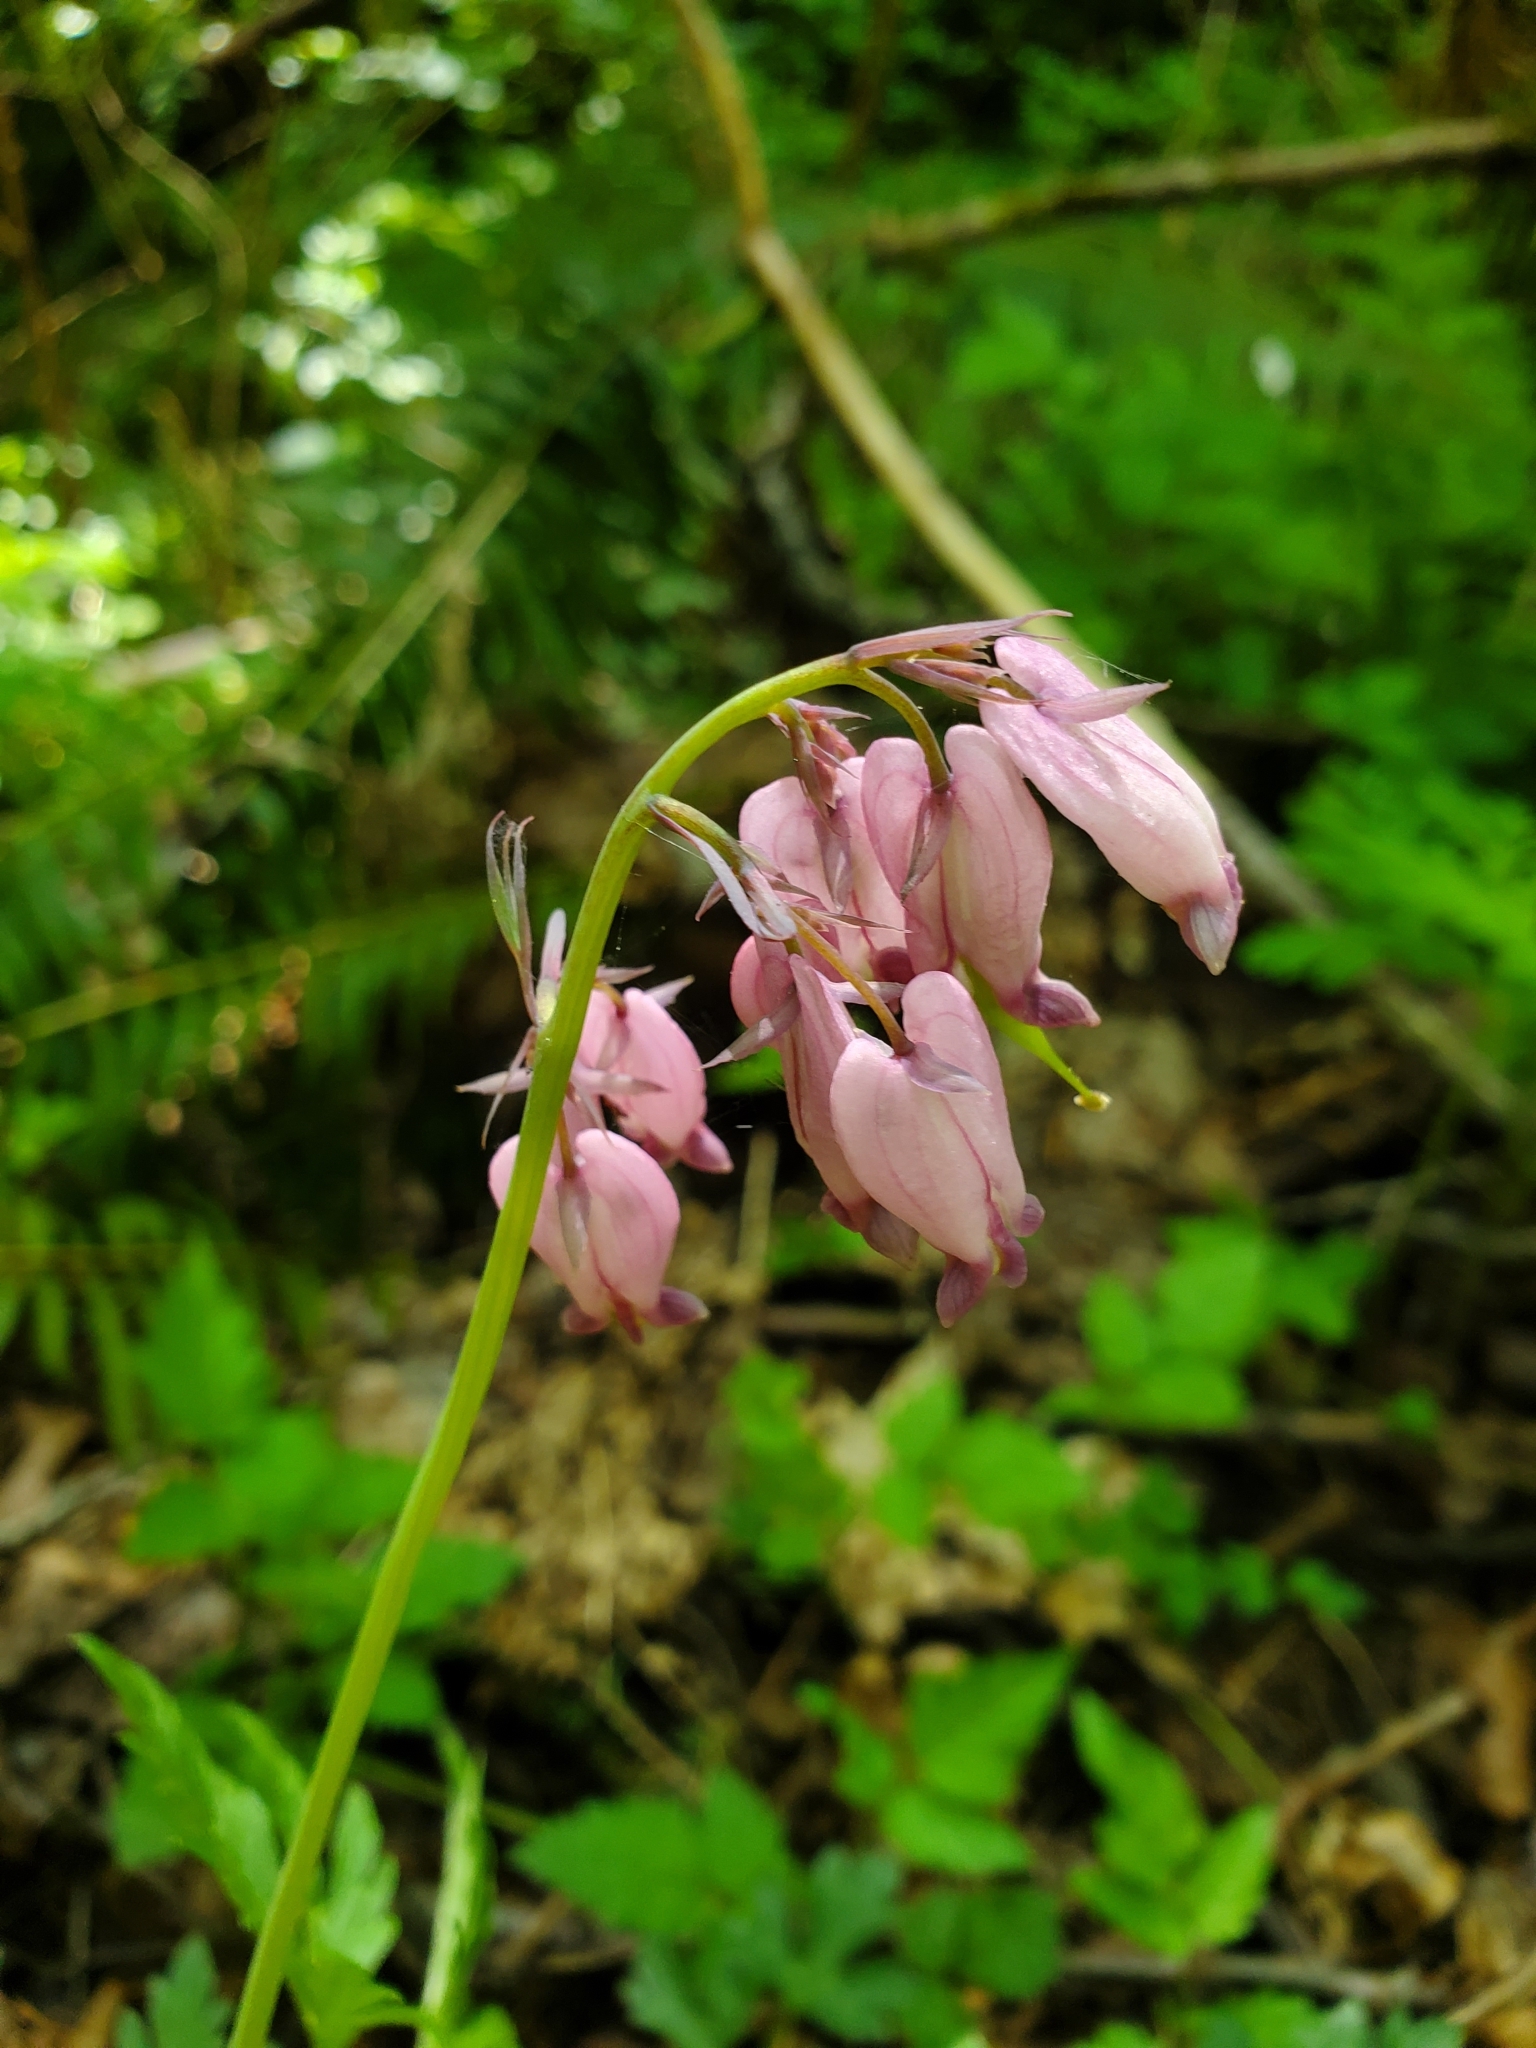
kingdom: Plantae
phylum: Tracheophyta
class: Magnoliopsida
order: Ranunculales
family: Papaveraceae
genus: Dicentra
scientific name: Dicentra formosa
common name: Bleeding-heart
